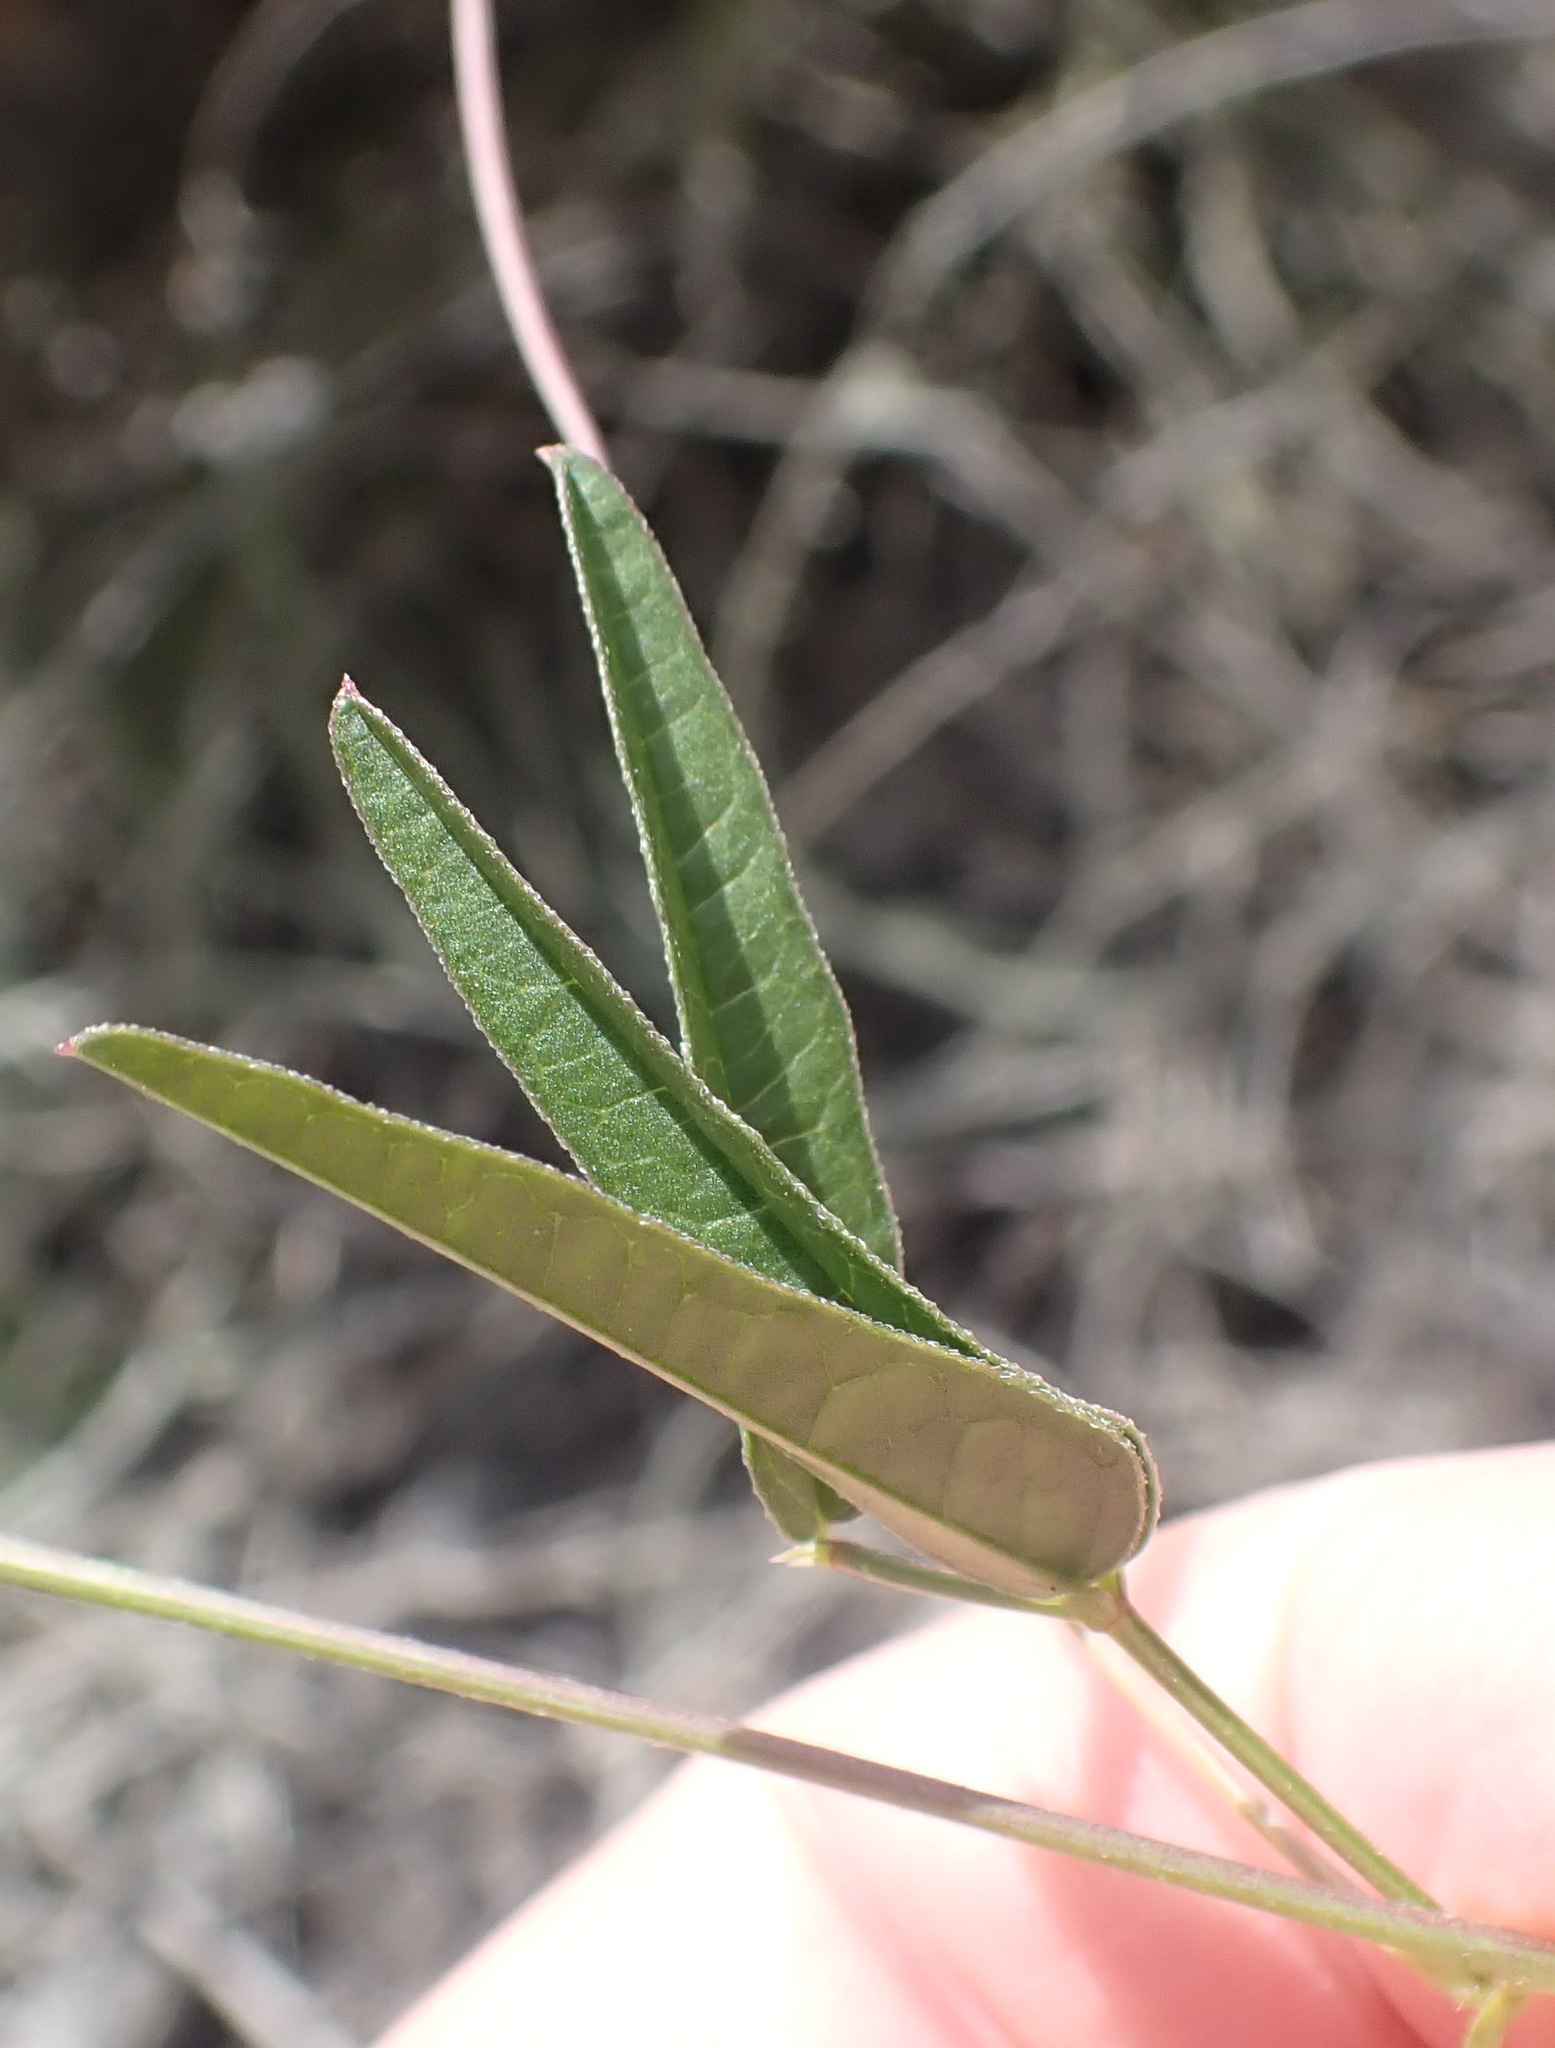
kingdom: Plantae
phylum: Tracheophyta
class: Magnoliopsida
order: Fabales
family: Fabaceae
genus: Dolichos
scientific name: Dolichos hastiformis
